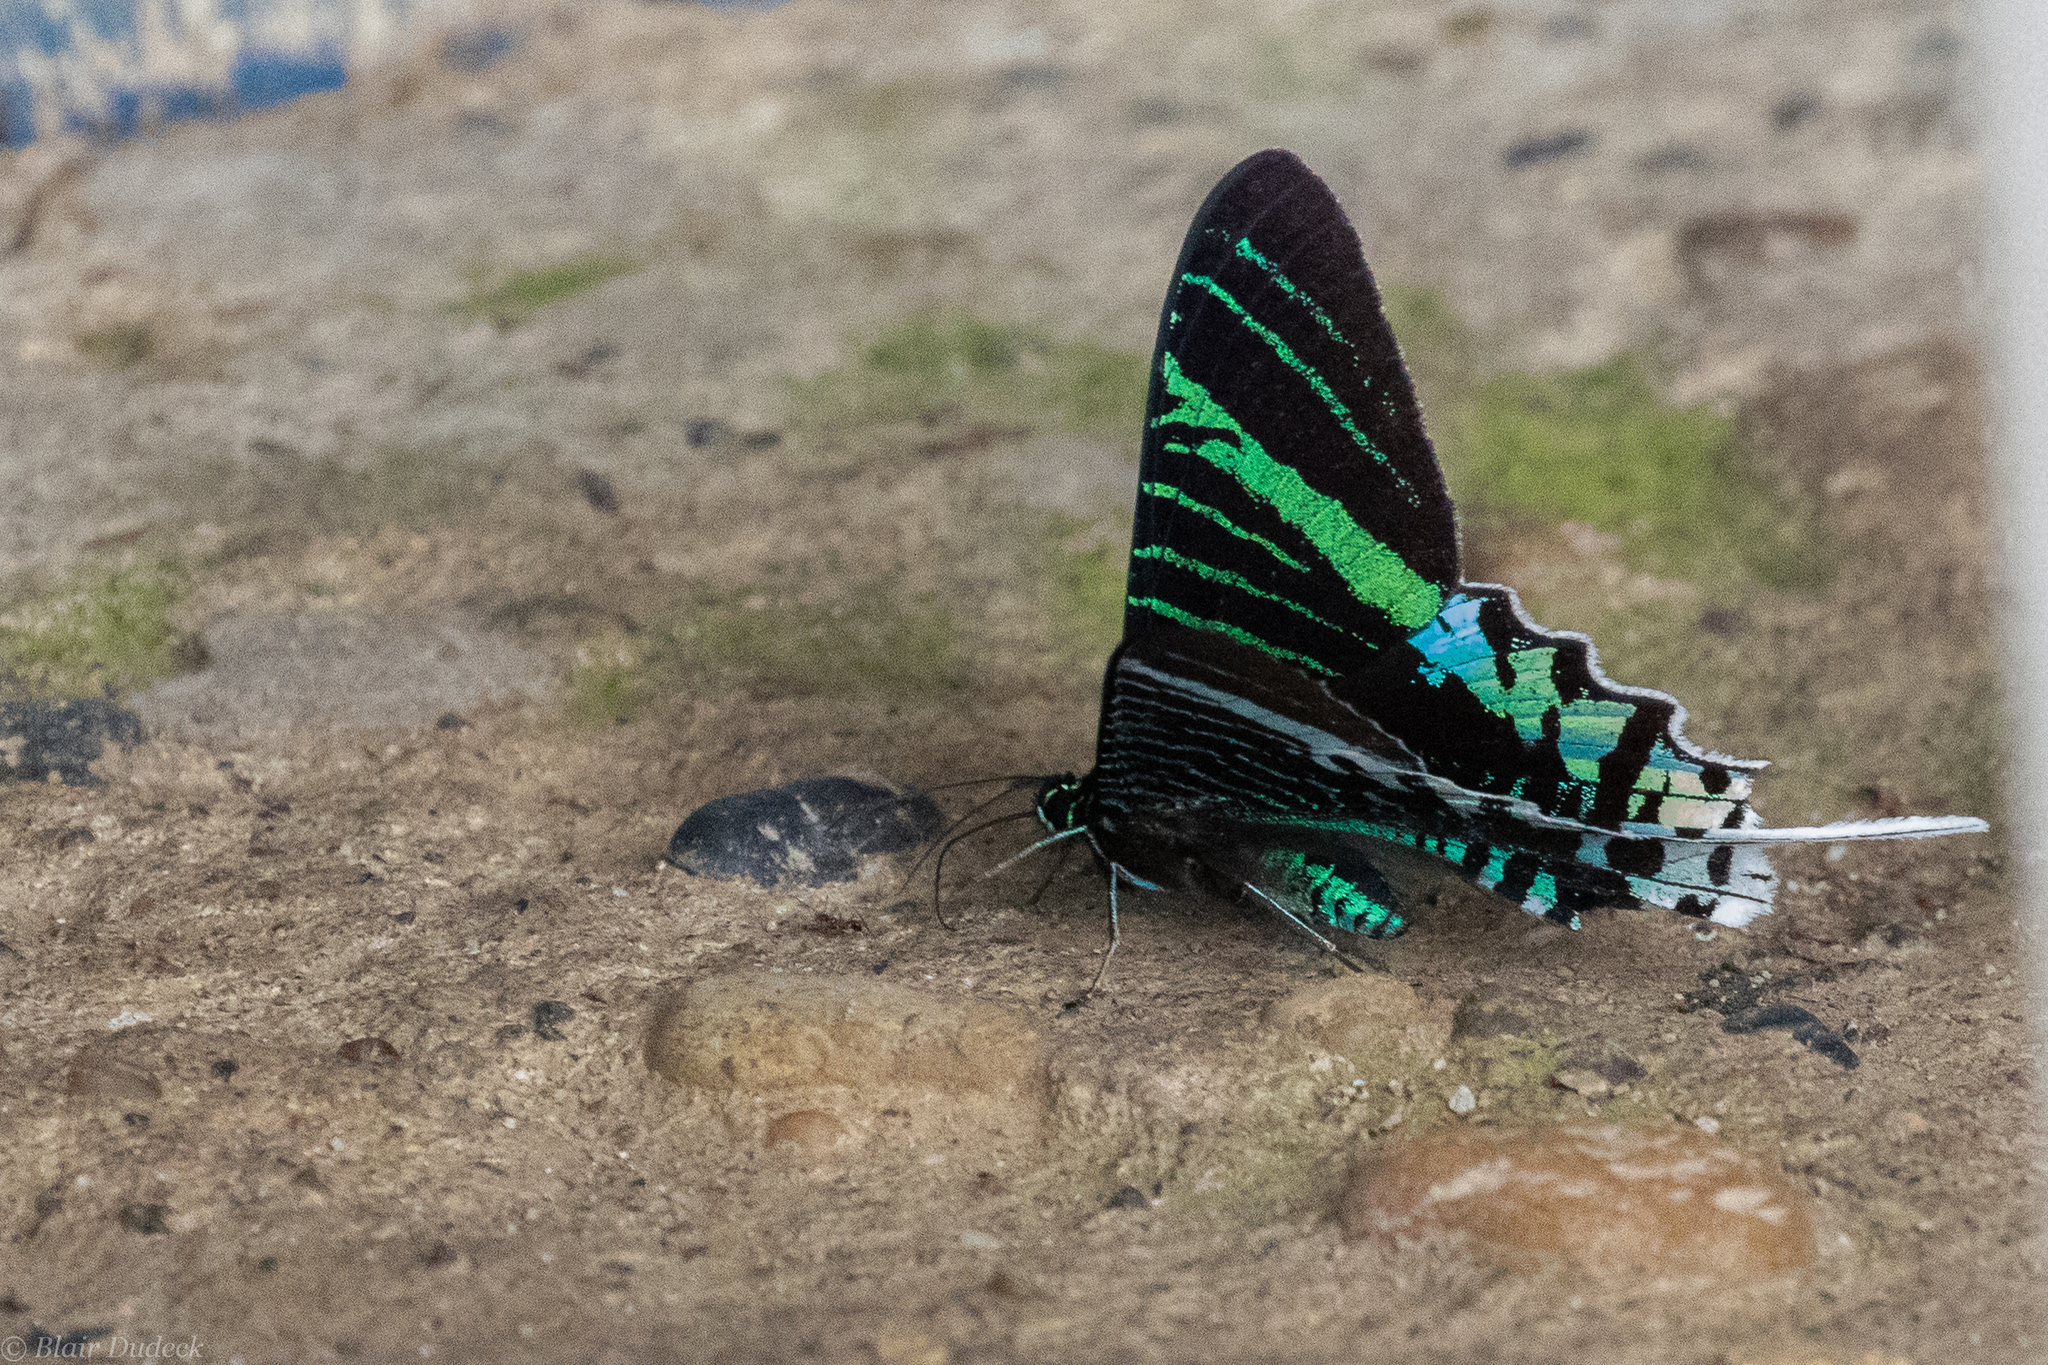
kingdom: Animalia
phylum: Arthropoda
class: Insecta
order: Lepidoptera
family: Uraniidae
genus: Urania
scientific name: Urania leilus
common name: Peacock moth
